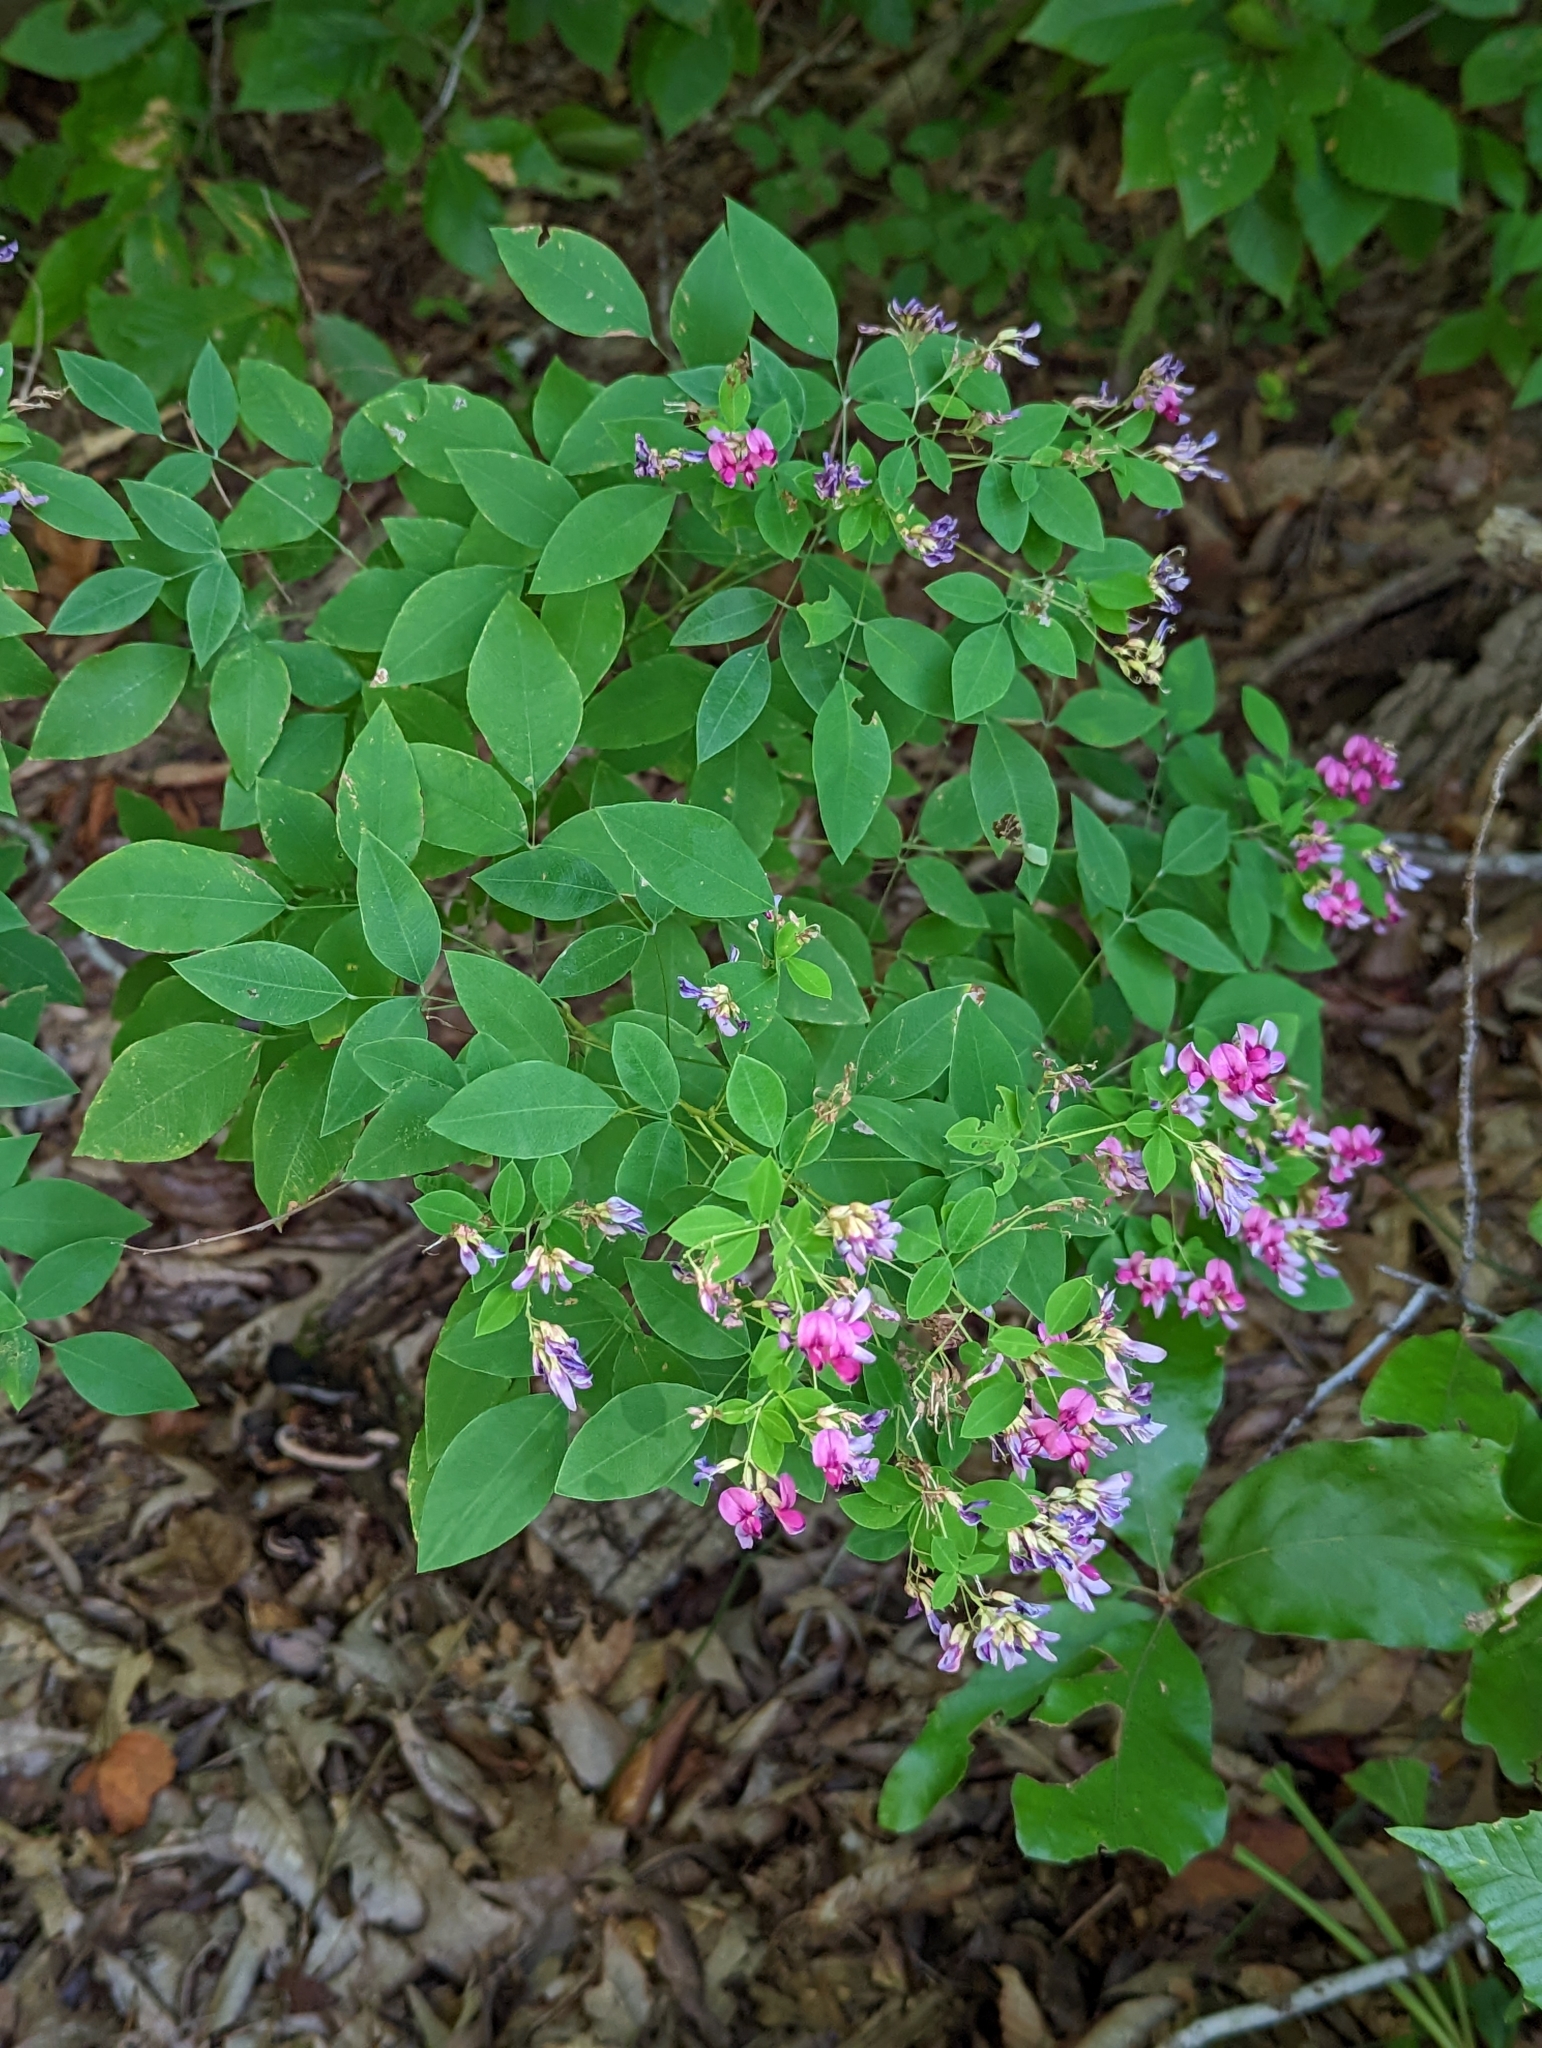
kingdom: Plantae
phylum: Tracheophyta
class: Magnoliopsida
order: Fabales
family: Fabaceae
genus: Lespedeza
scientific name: Lespedeza bicolor
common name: Shrub lespedeza
